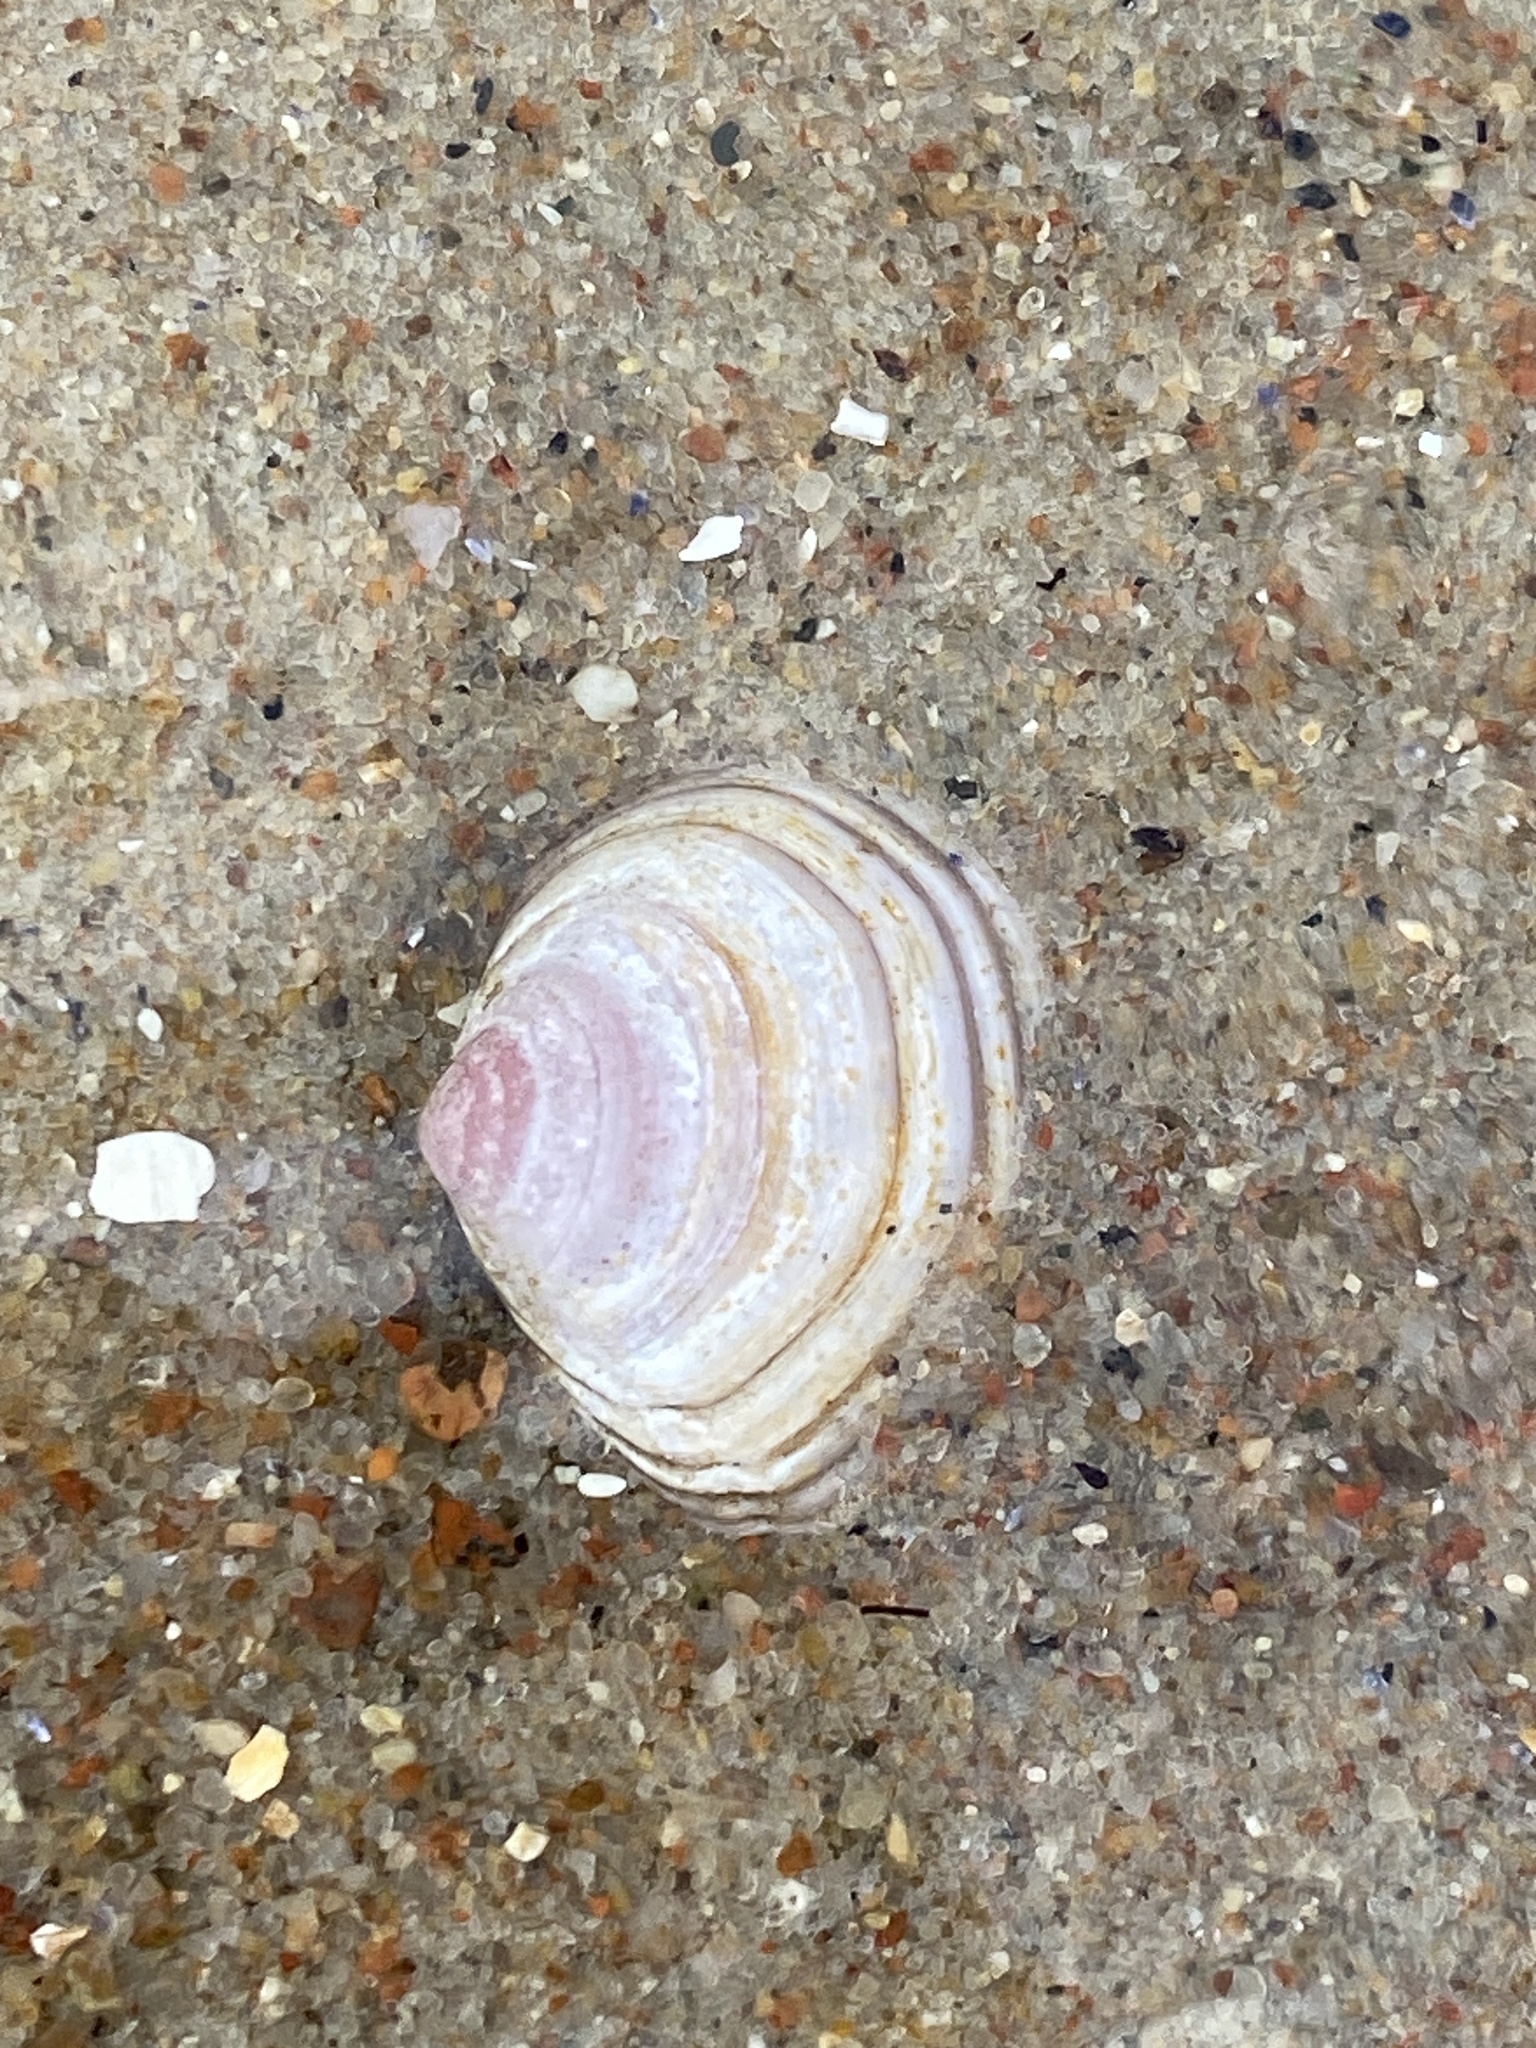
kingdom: Animalia
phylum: Mollusca
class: Bivalvia
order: Cardiida
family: Tellinidae
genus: Macoma
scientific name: Macoma balthica
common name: Baltic tellin
